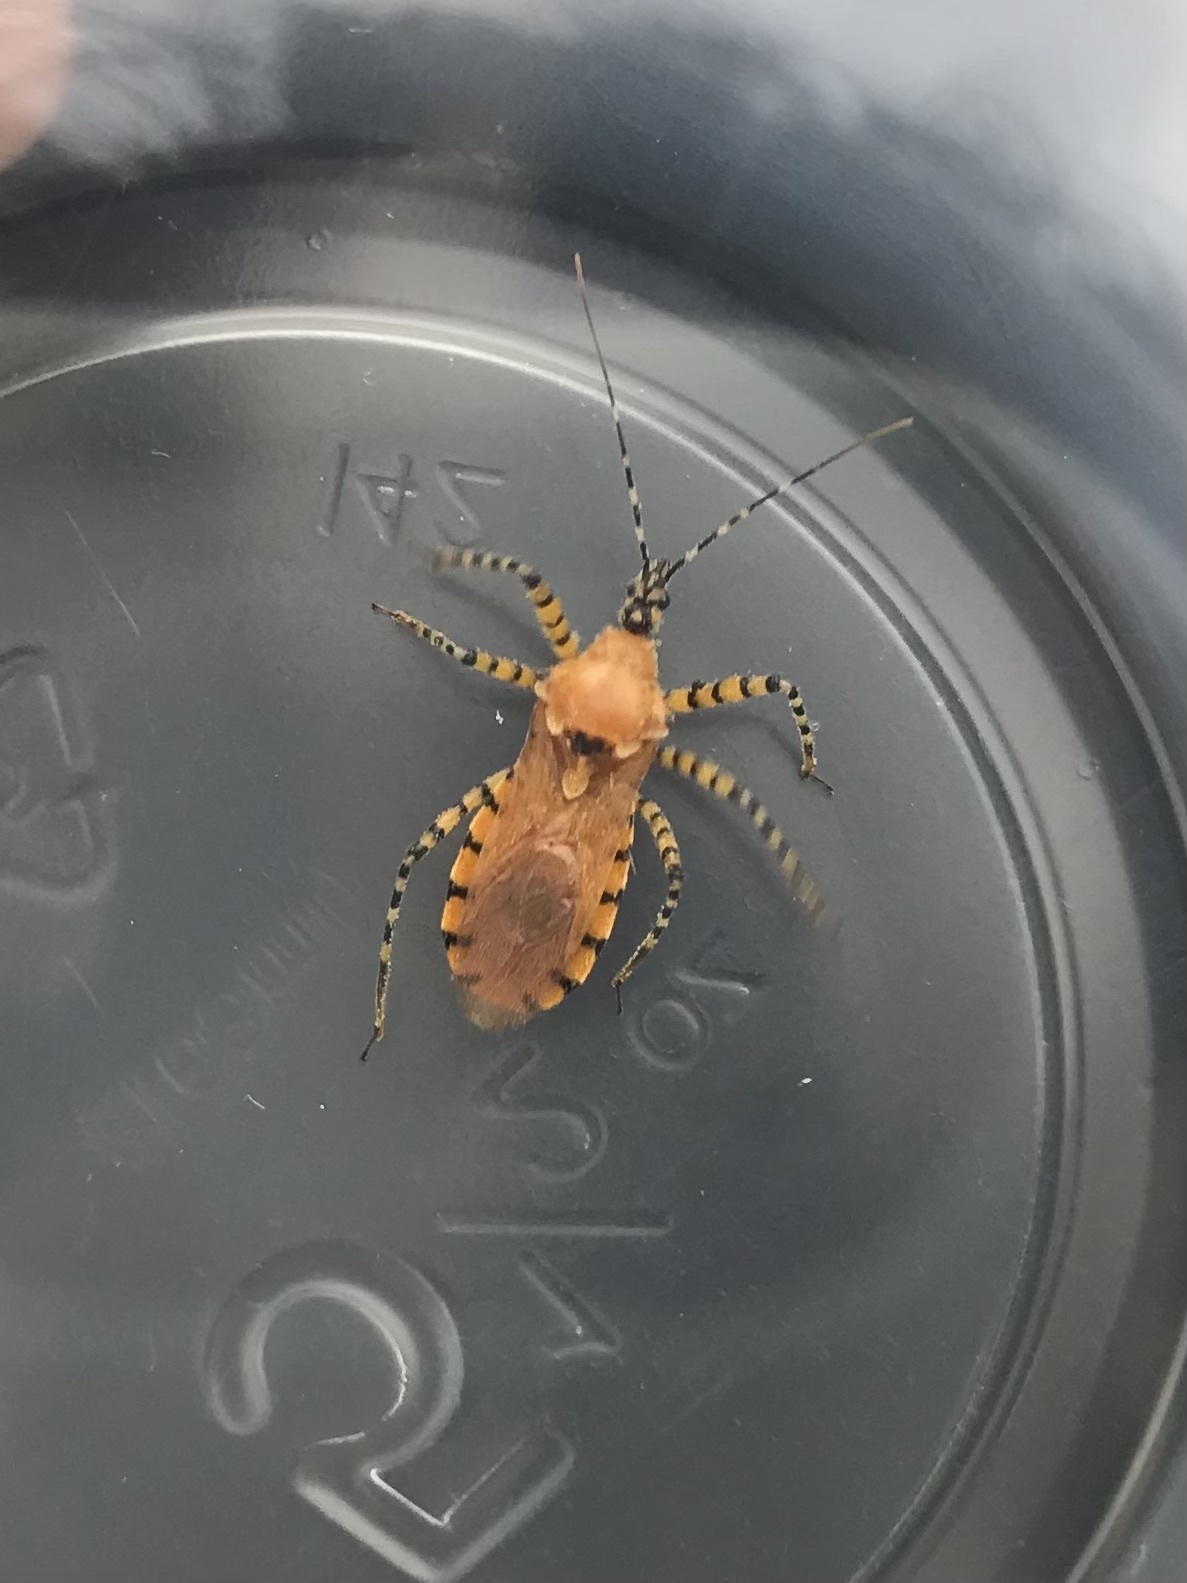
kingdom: Animalia
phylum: Arthropoda
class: Insecta
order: Hemiptera
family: Reduviidae
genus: Pselliopus
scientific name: Pselliopus barberi
